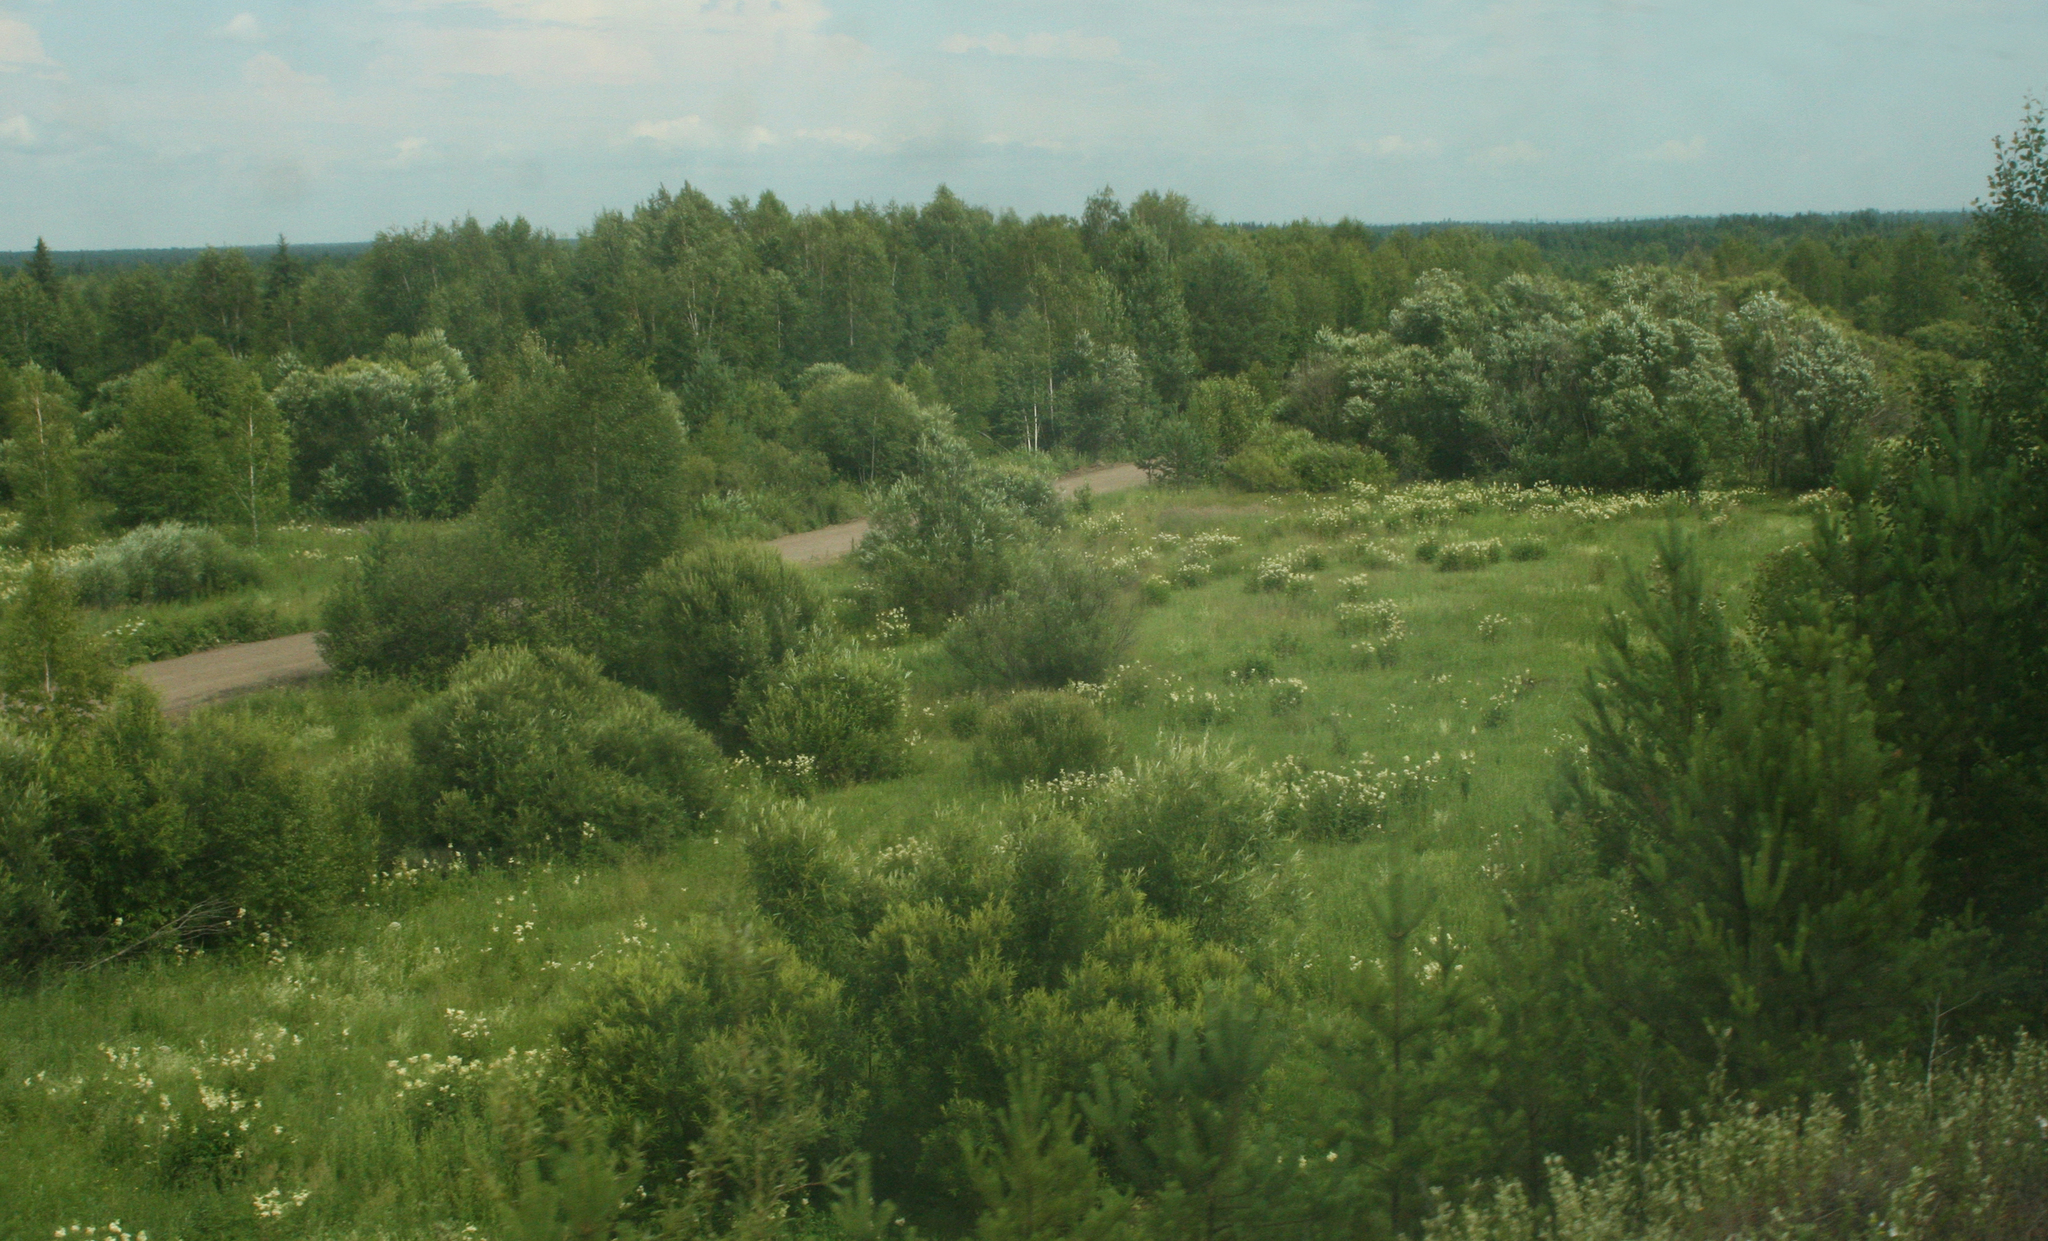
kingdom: Plantae
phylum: Tracheophyta
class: Pinopsida
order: Pinales
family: Pinaceae
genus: Pinus
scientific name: Pinus sylvestris
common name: Scots pine
